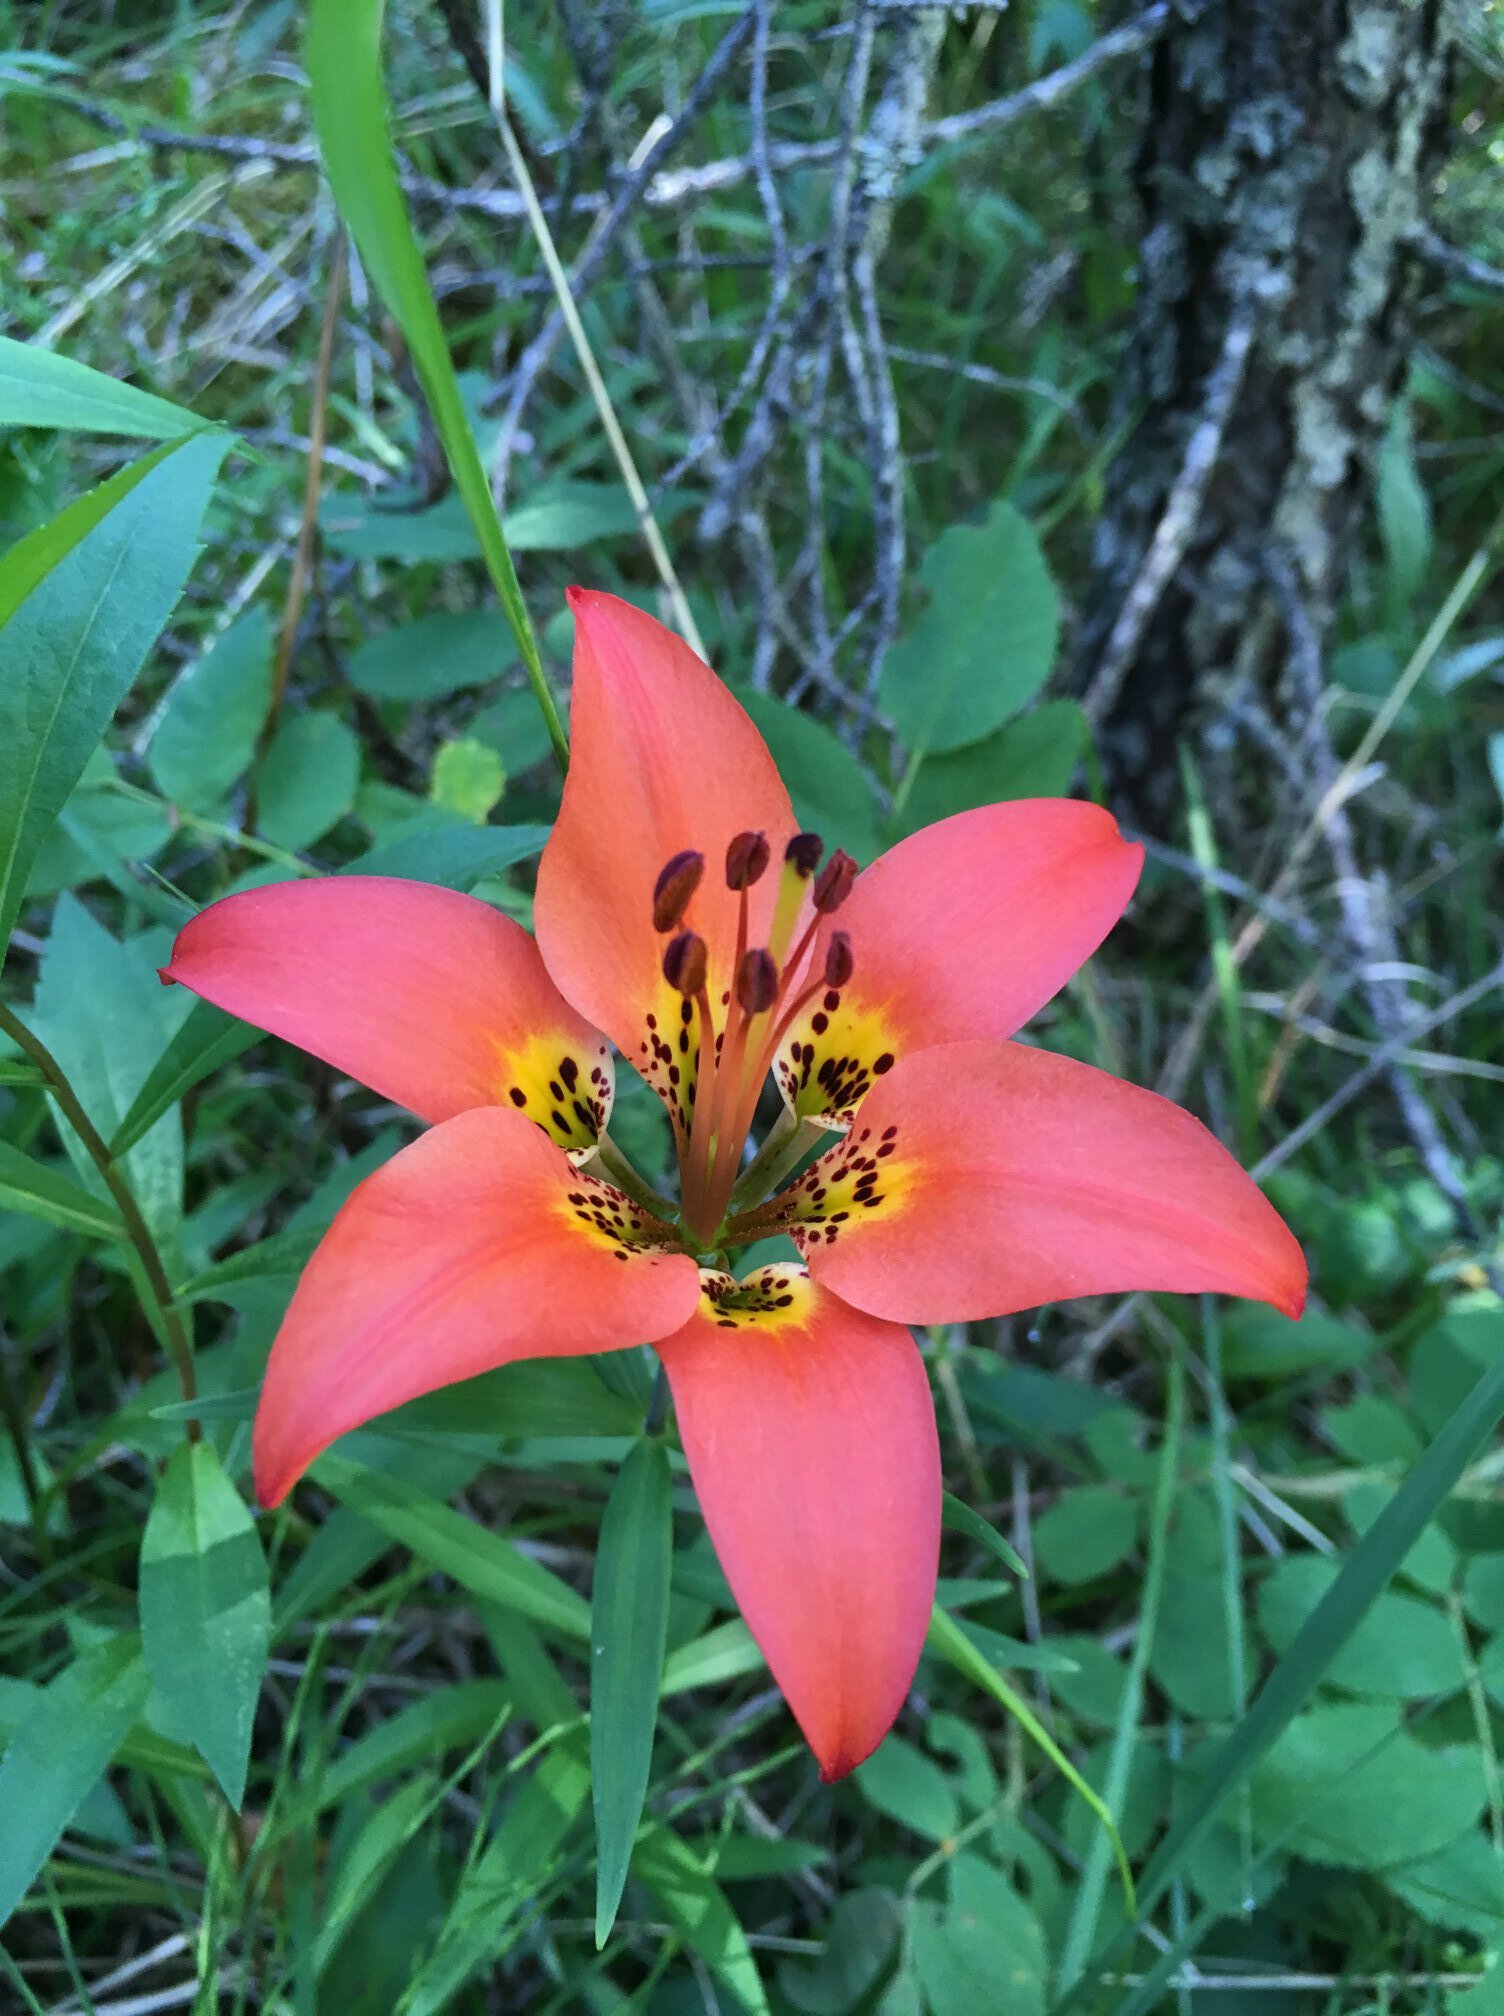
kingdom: Plantae
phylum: Tracheophyta
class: Liliopsida
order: Liliales
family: Liliaceae
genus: Lilium
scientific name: Lilium philadelphicum
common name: Red lily
